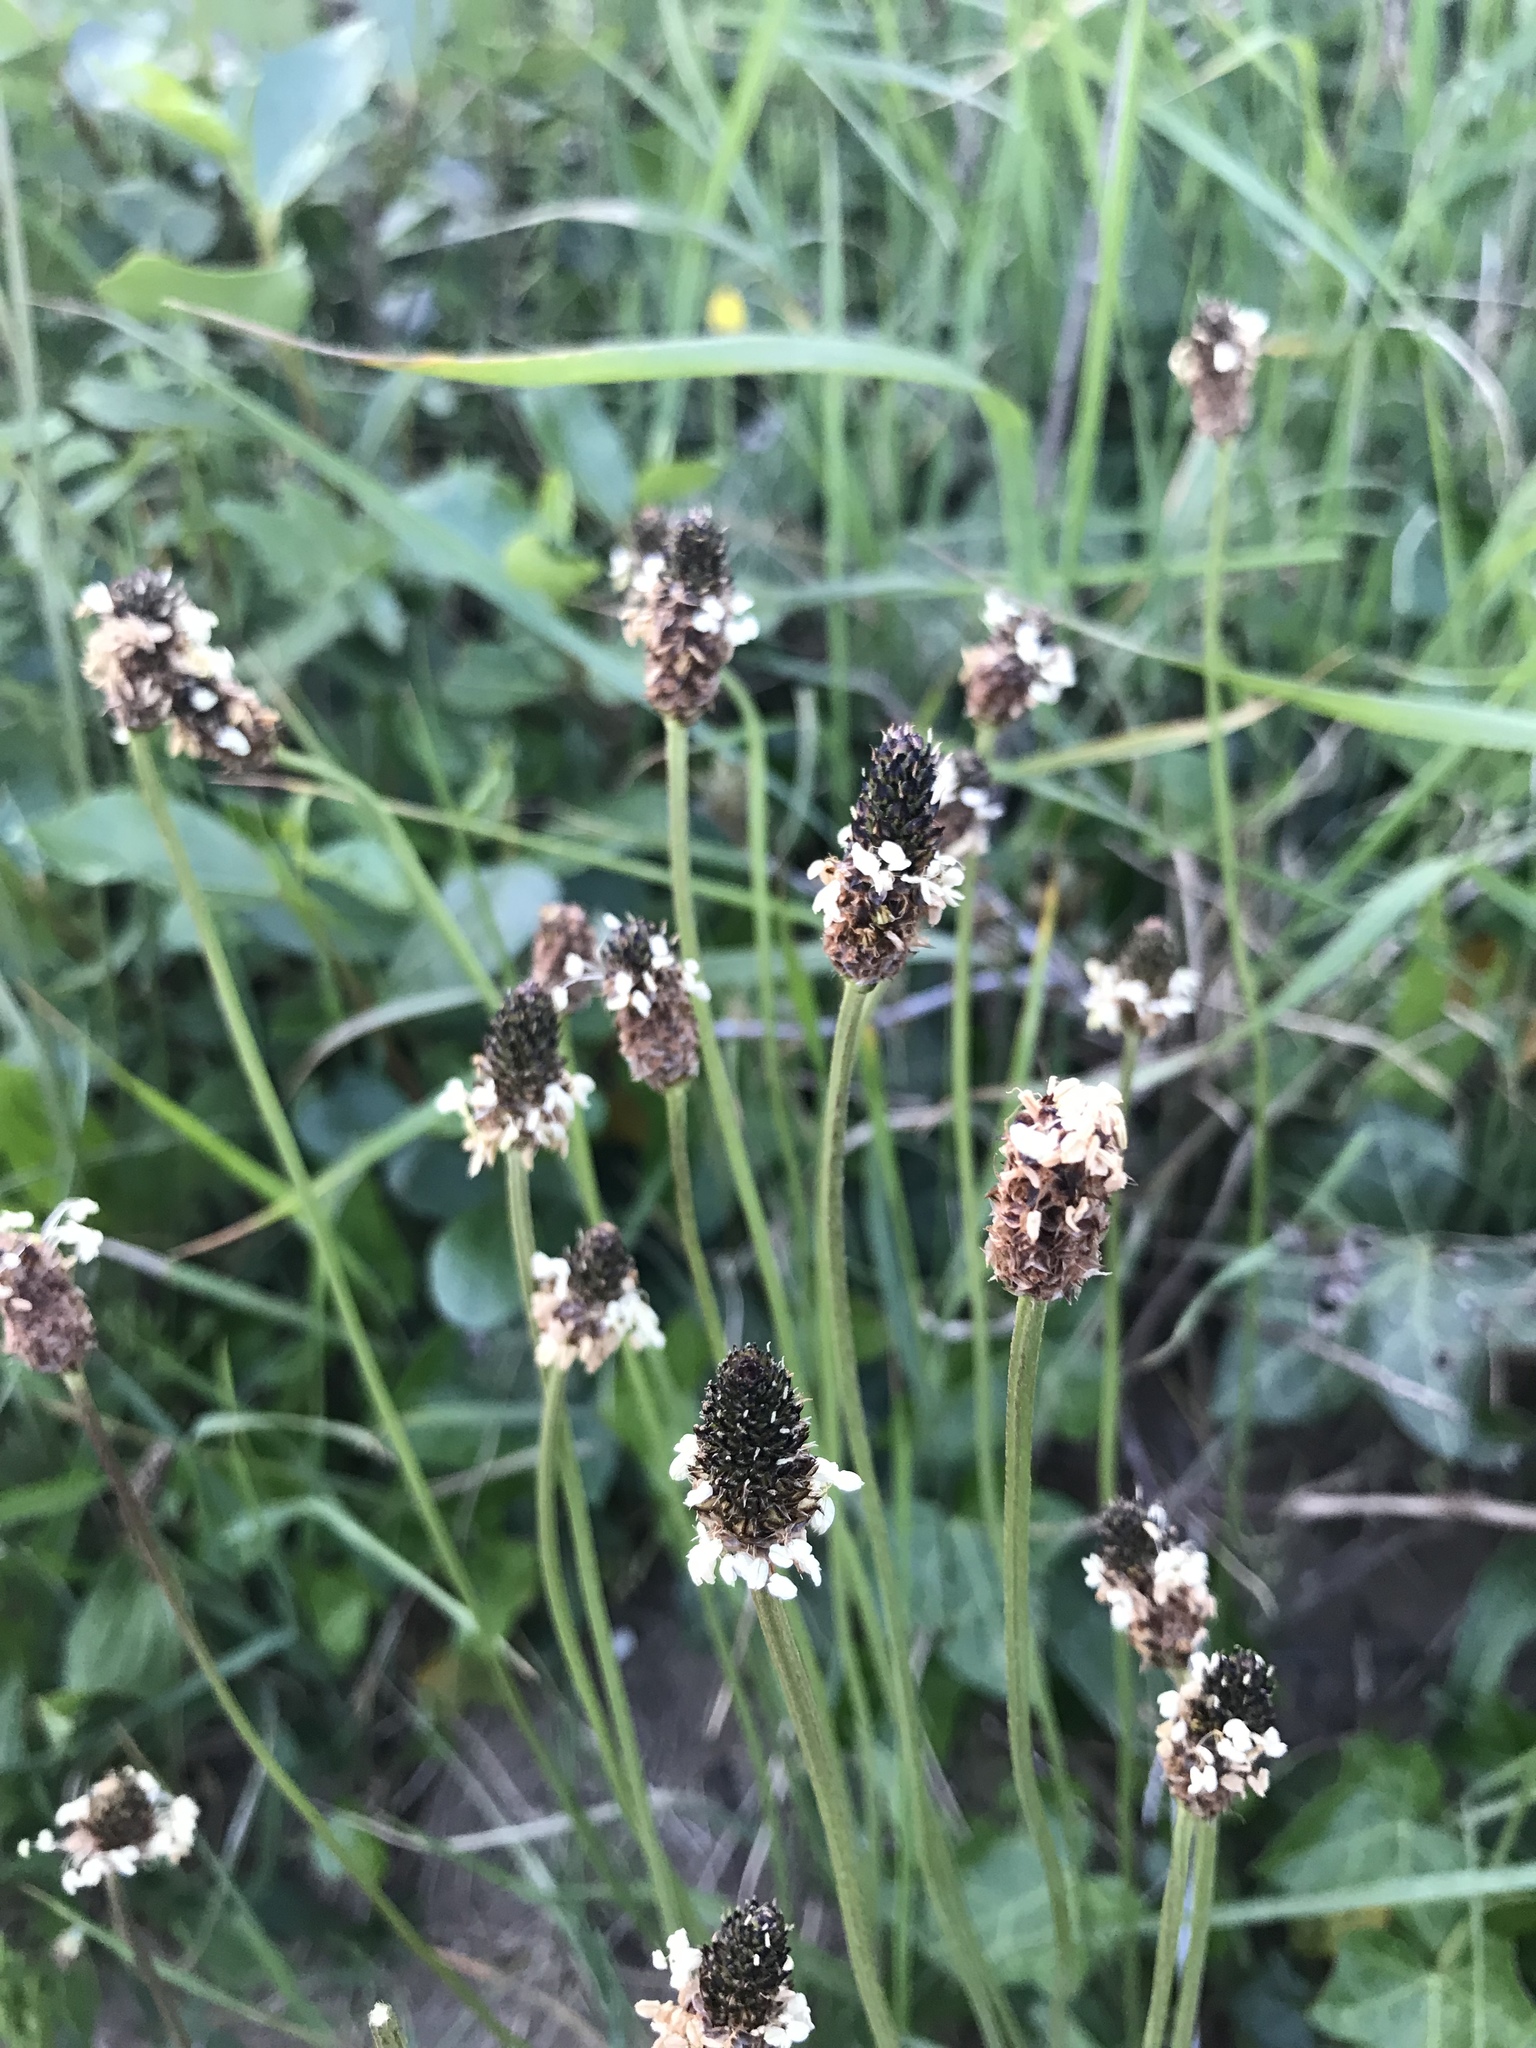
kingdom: Plantae
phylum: Tracheophyta
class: Magnoliopsida
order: Lamiales
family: Plantaginaceae
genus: Plantago
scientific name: Plantago lanceolata
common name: Ribwort plantain
